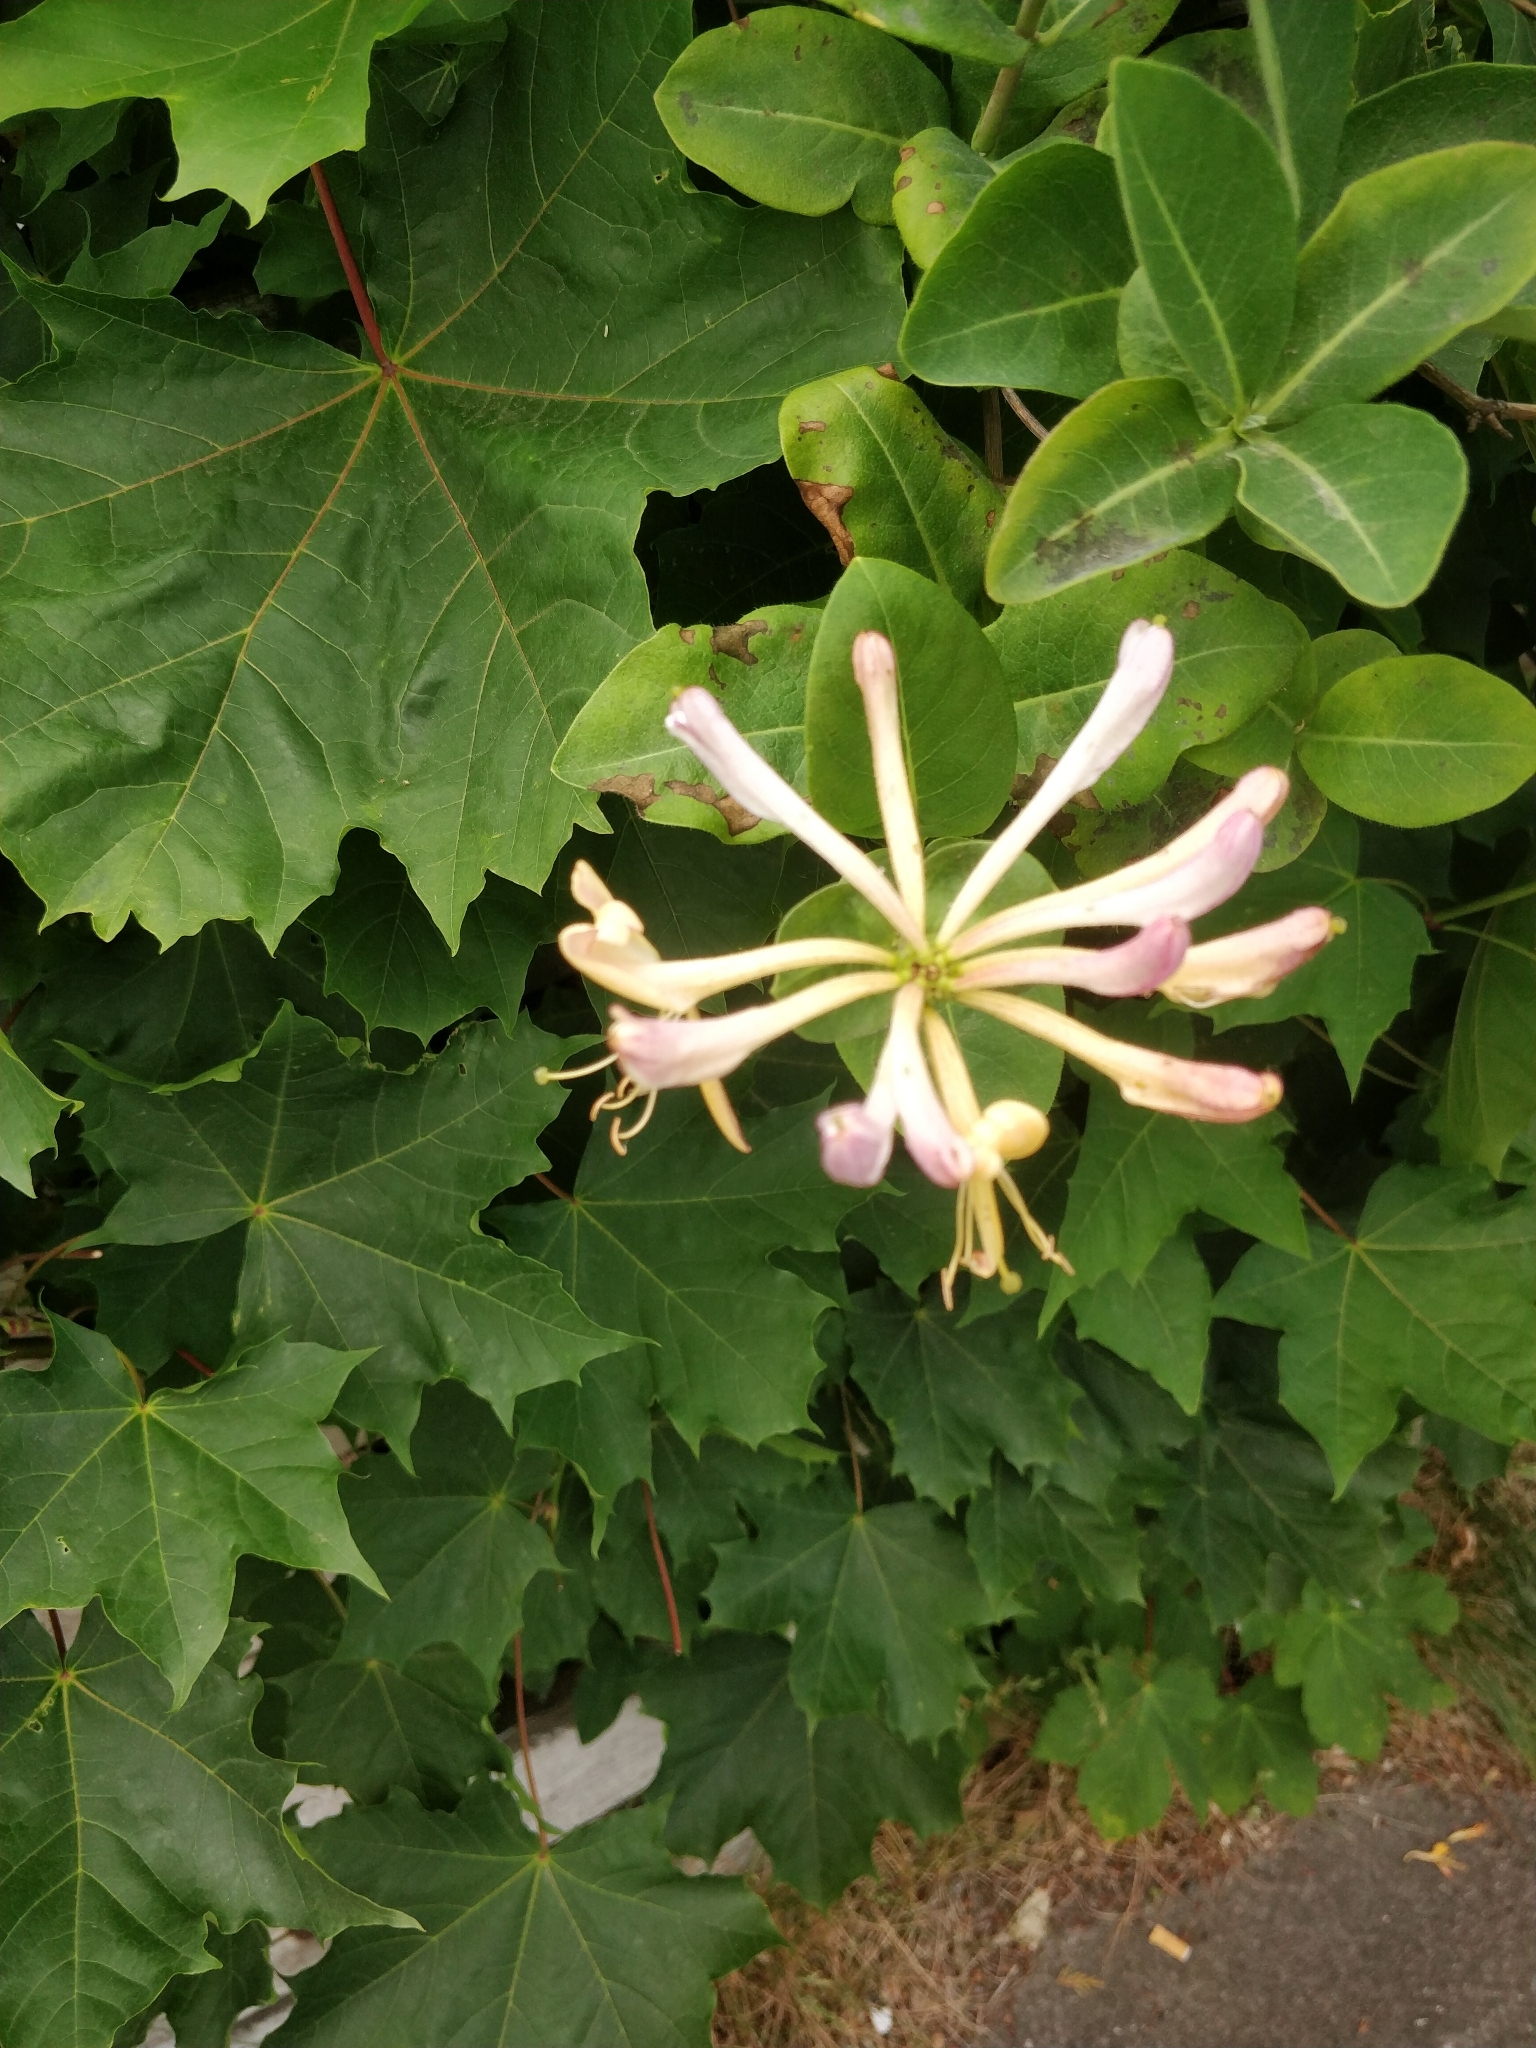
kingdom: Plantae
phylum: Tracheophyta
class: Magnoliopsida
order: Dipsacales
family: Caprifoliaceae
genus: Lonicera
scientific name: Lonicera periclymenum
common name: European honeysuckle
